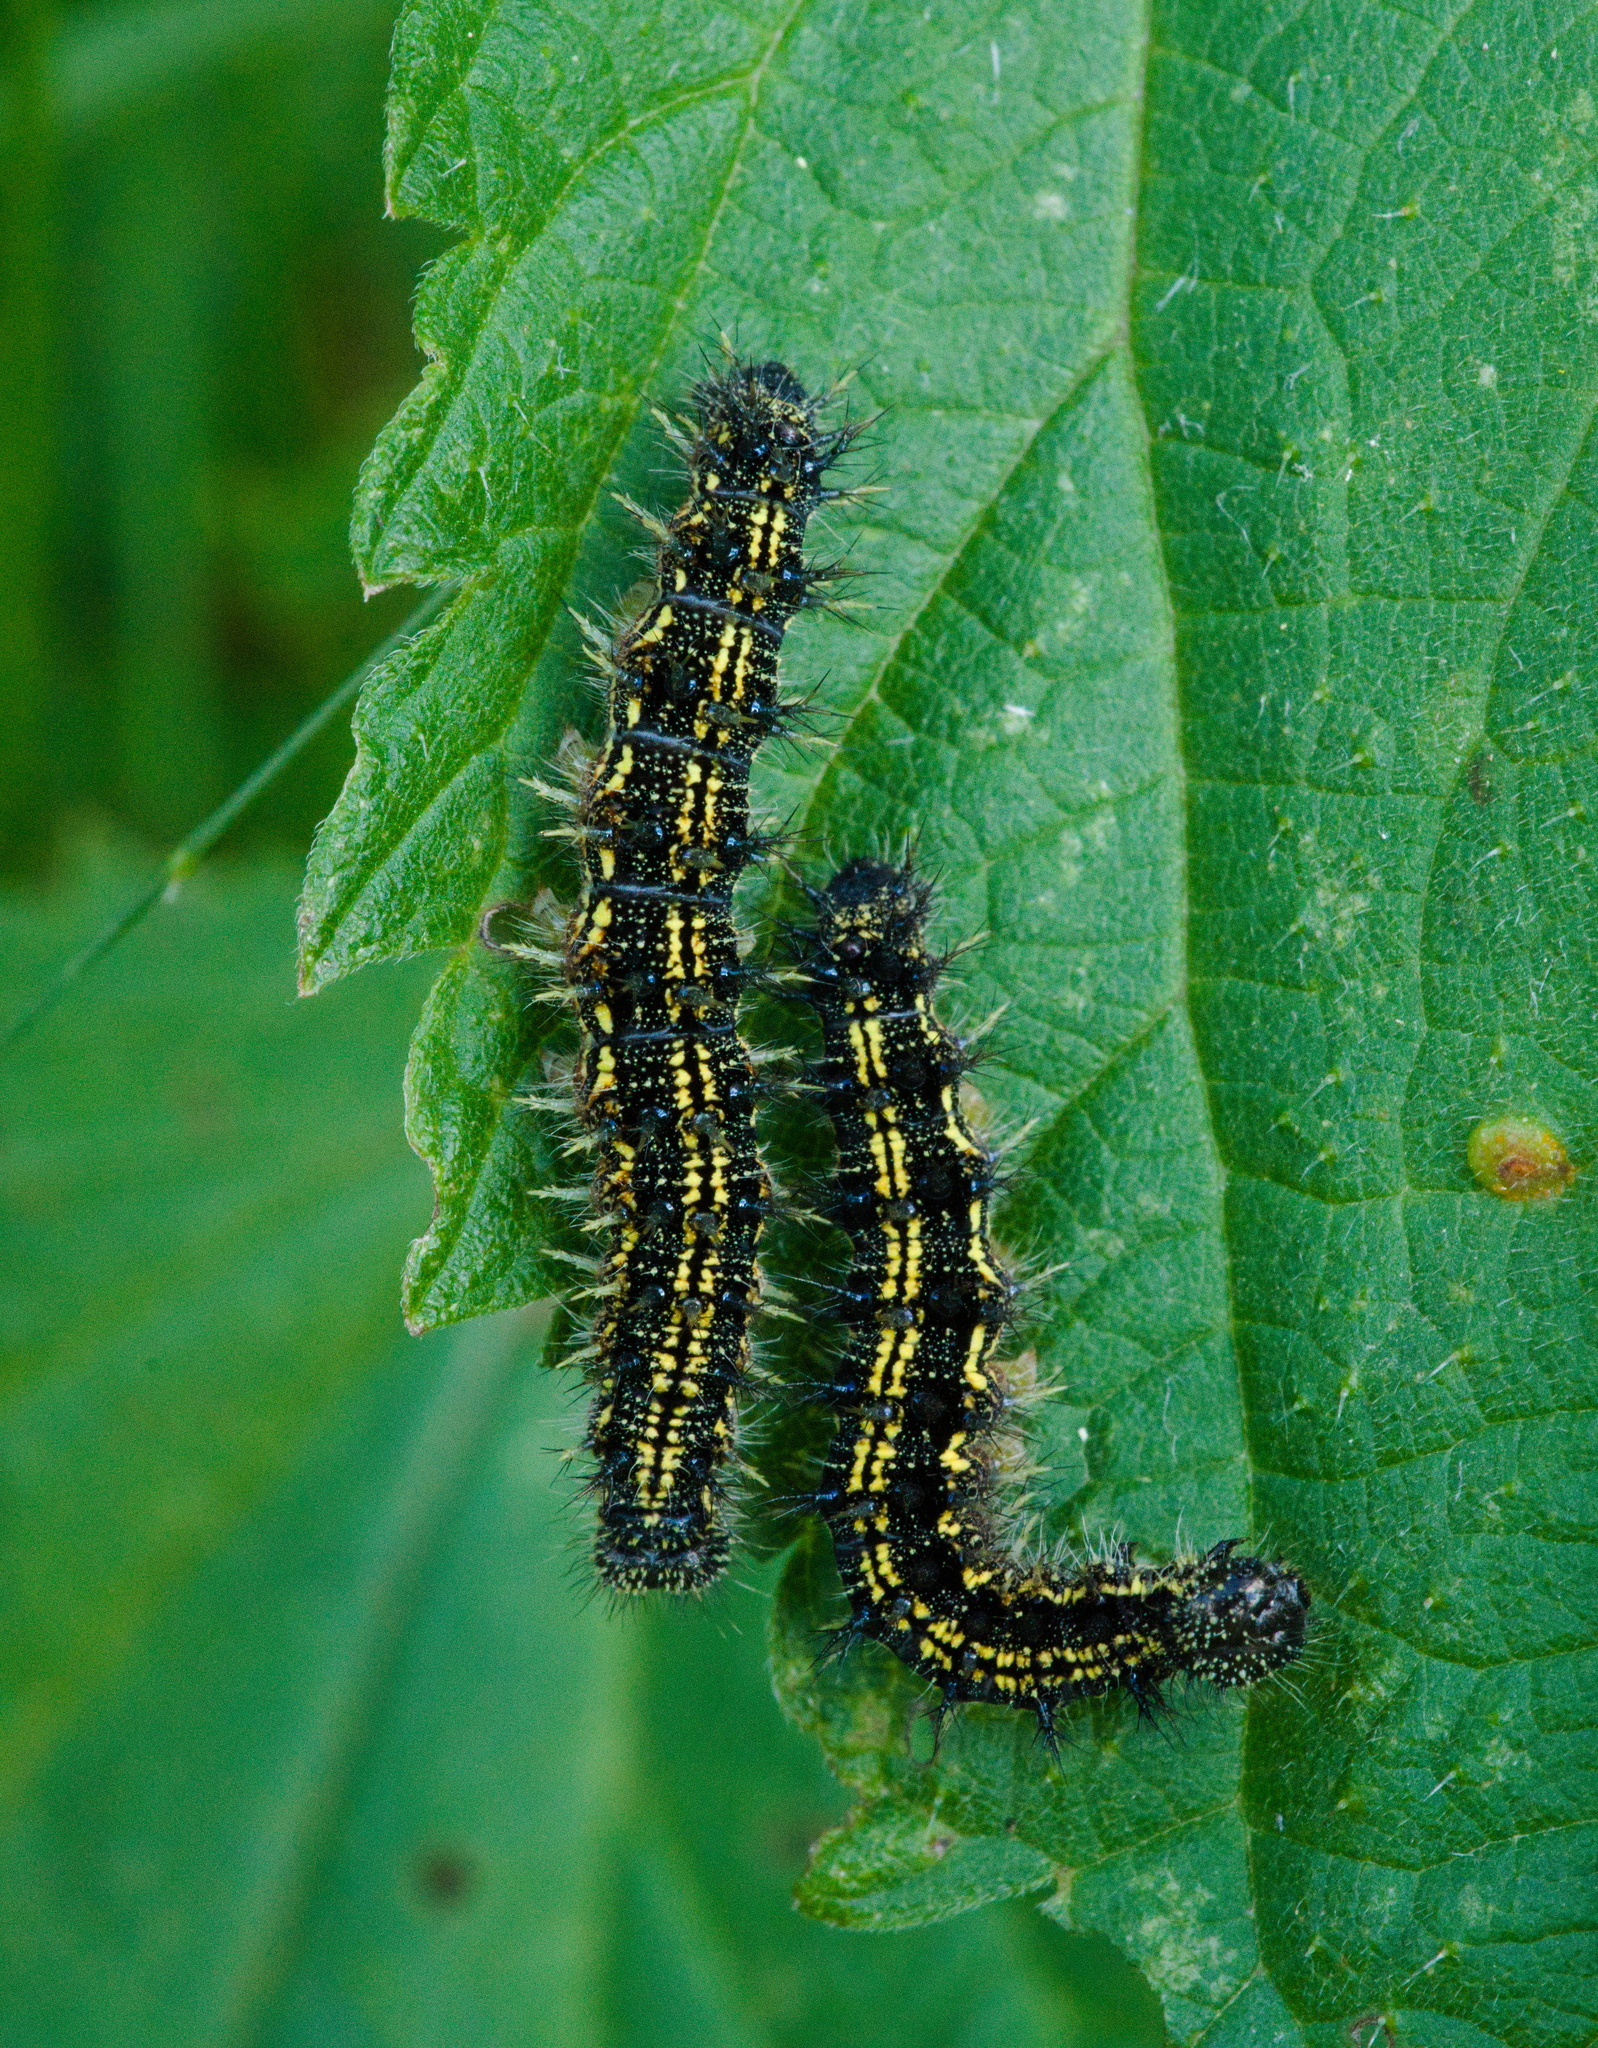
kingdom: Animalia
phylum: Arthropoda
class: Insecta
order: Lepidoptera
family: Nymphalidae
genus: Aglais
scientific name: Aglais urticae
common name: Small tortoiseshell
